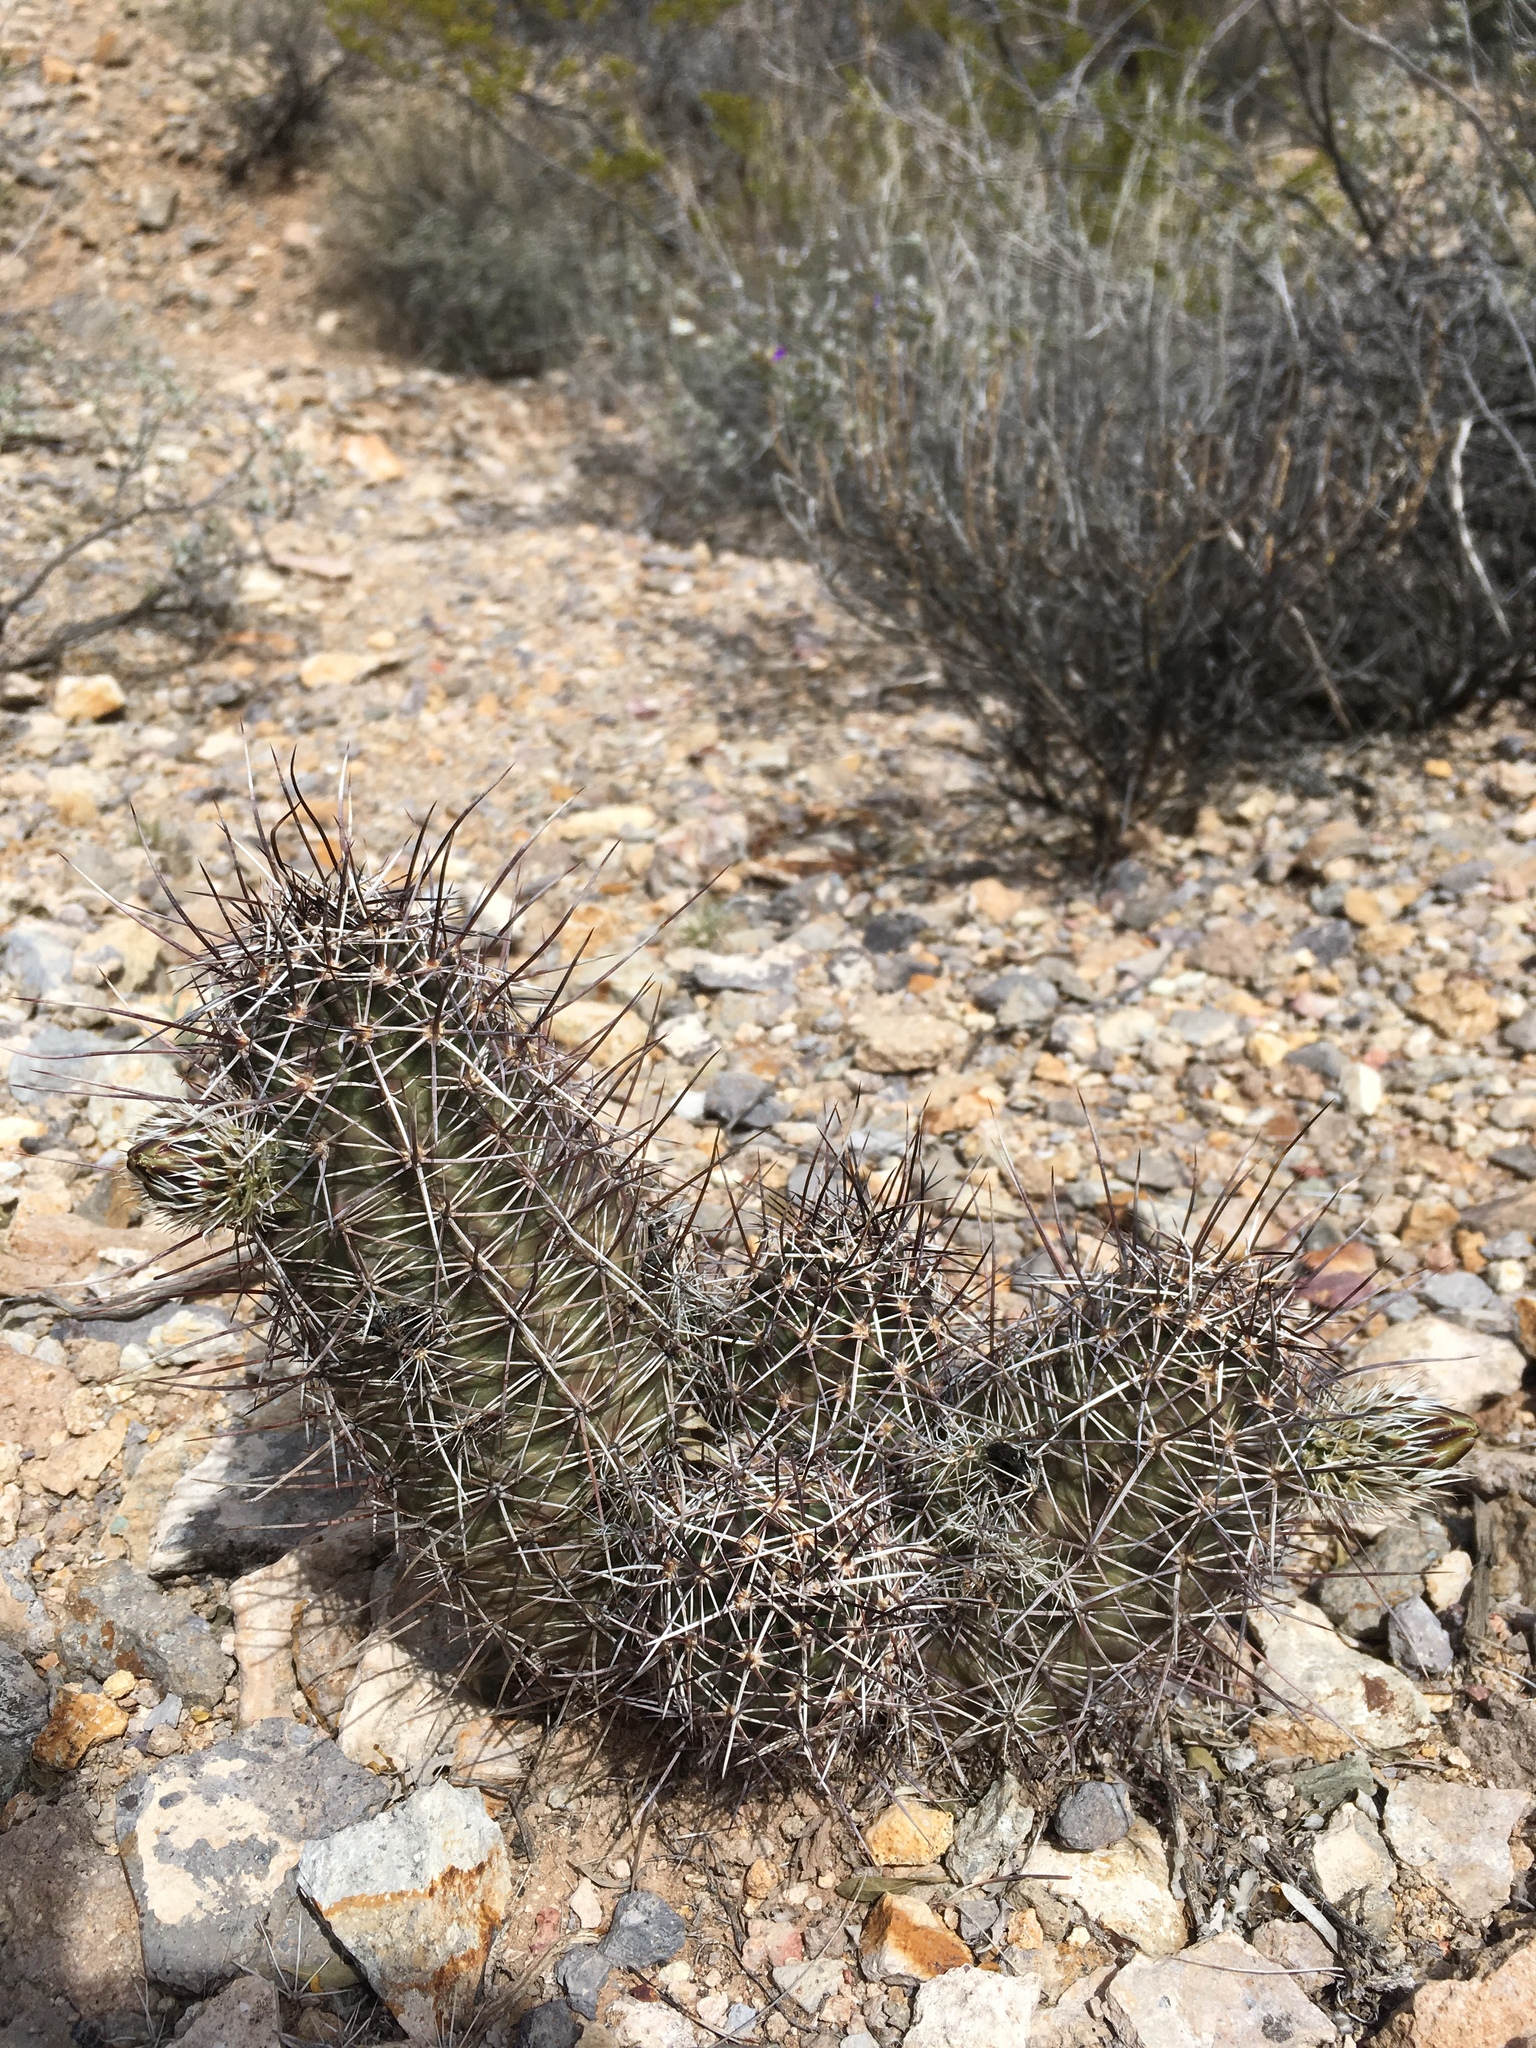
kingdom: Plantae
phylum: Tracheophyta
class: Magnoliopsida
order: Caryophyllales
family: Cactaceae
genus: Echinocereus
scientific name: Echinocereus fendleri
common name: Fendler's hedgehog cactus
